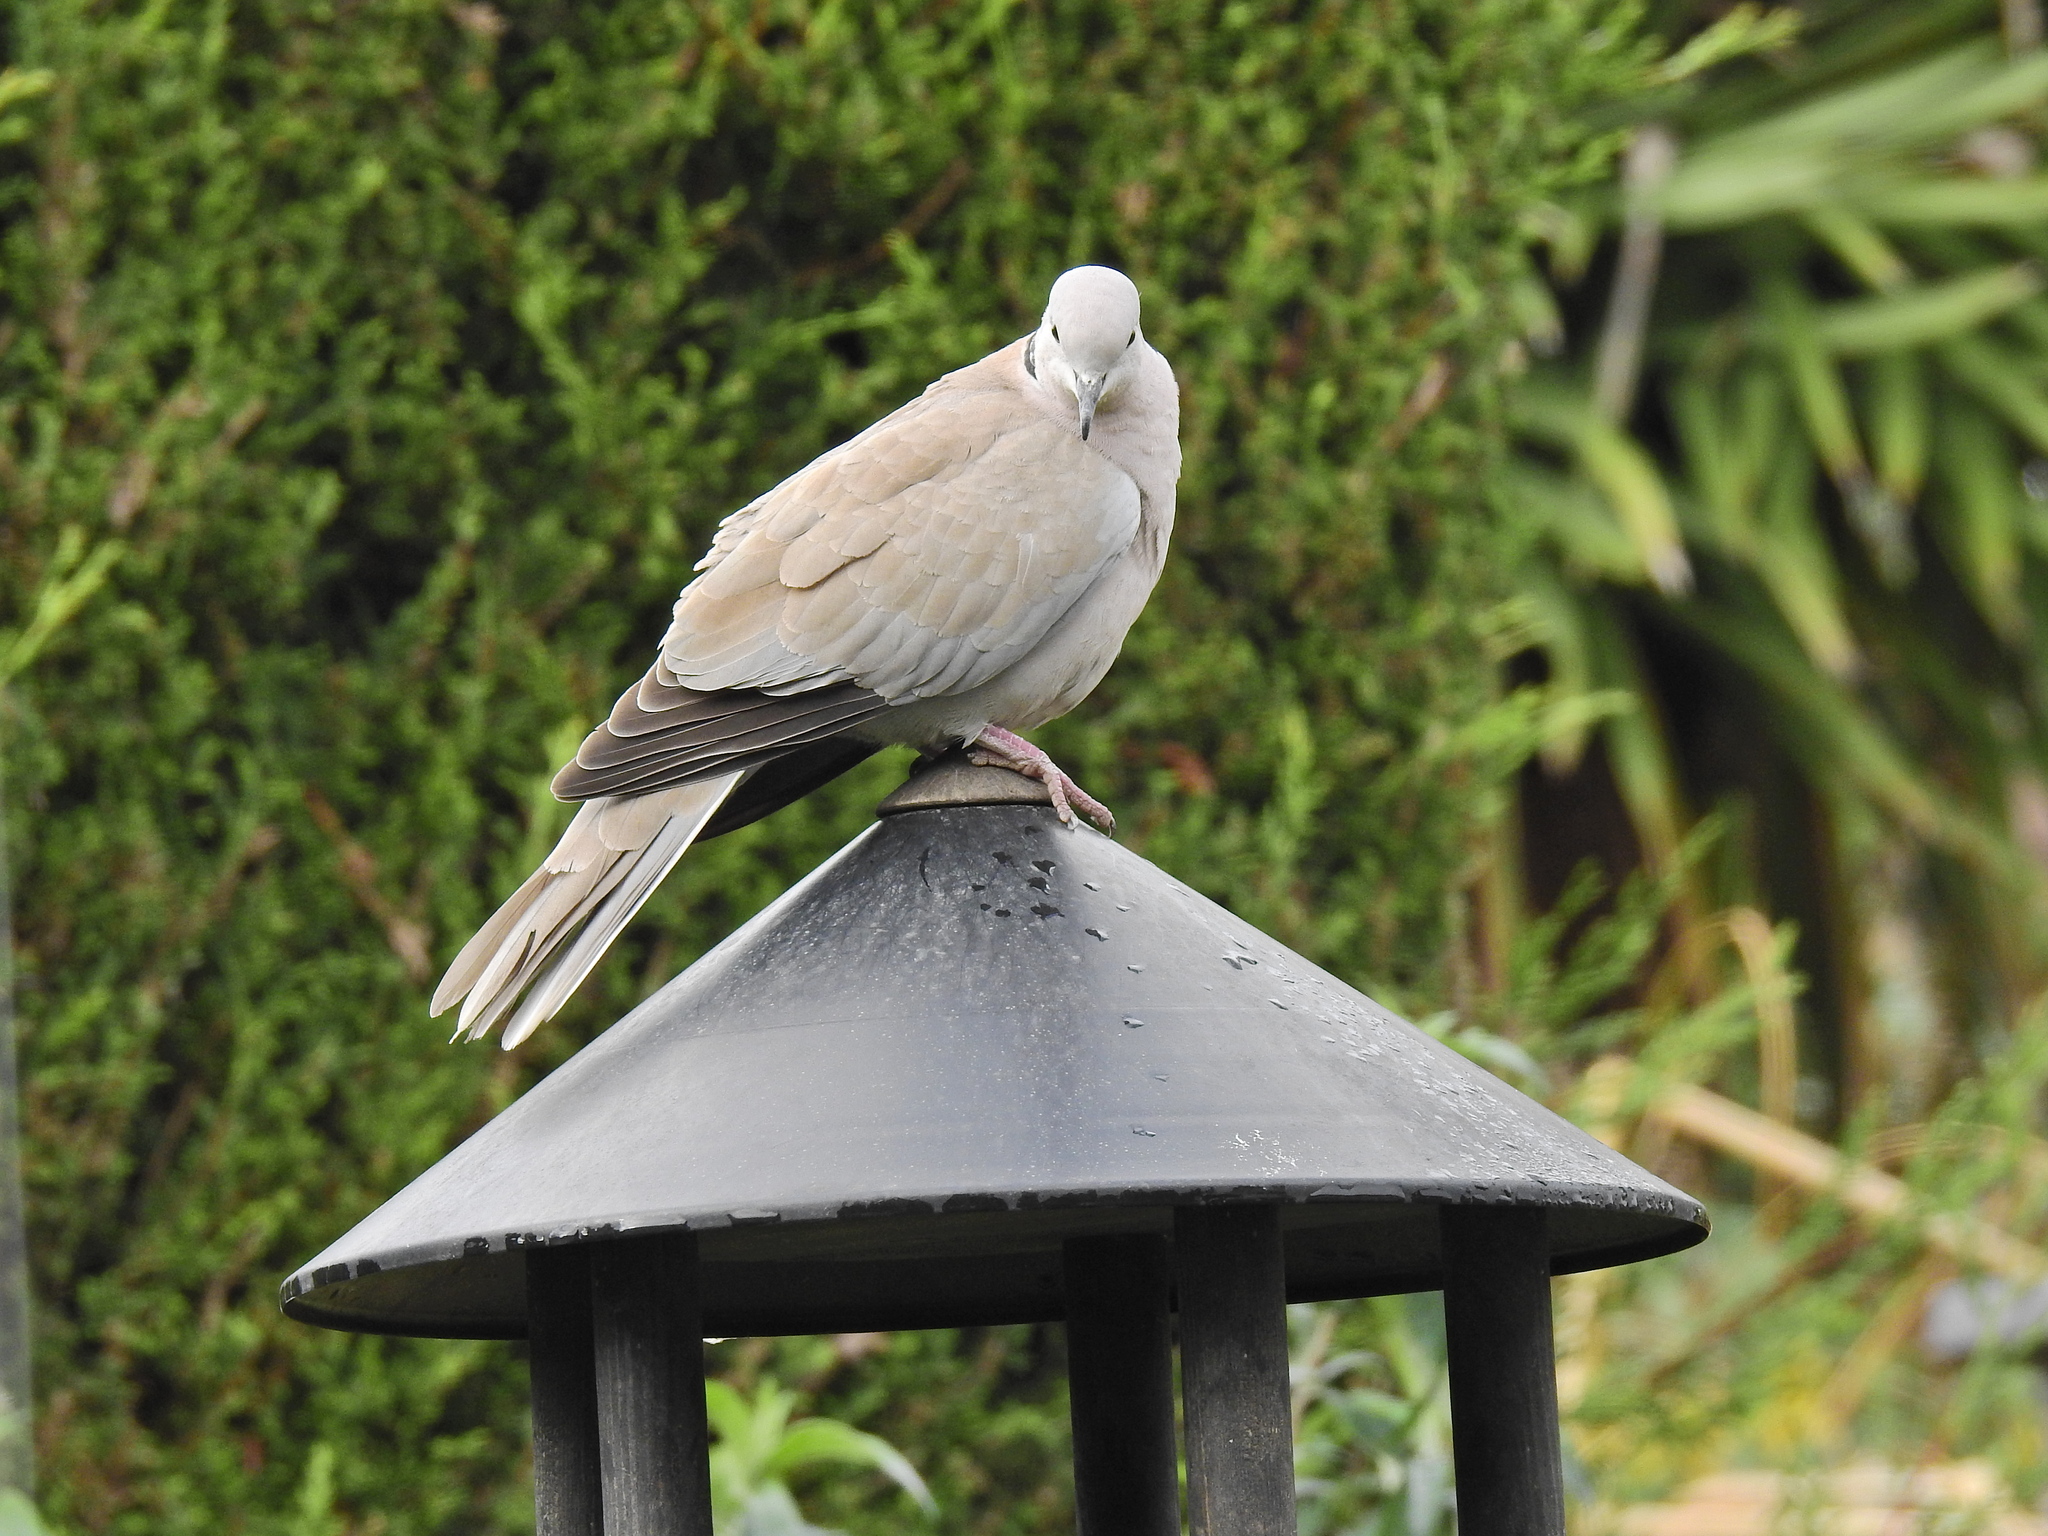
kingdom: Animalia
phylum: Chordata
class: Aves
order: Columbiformes
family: Columbidae
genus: Streptopelia
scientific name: Streptopelia decaocto
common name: Eurasian collared dove
